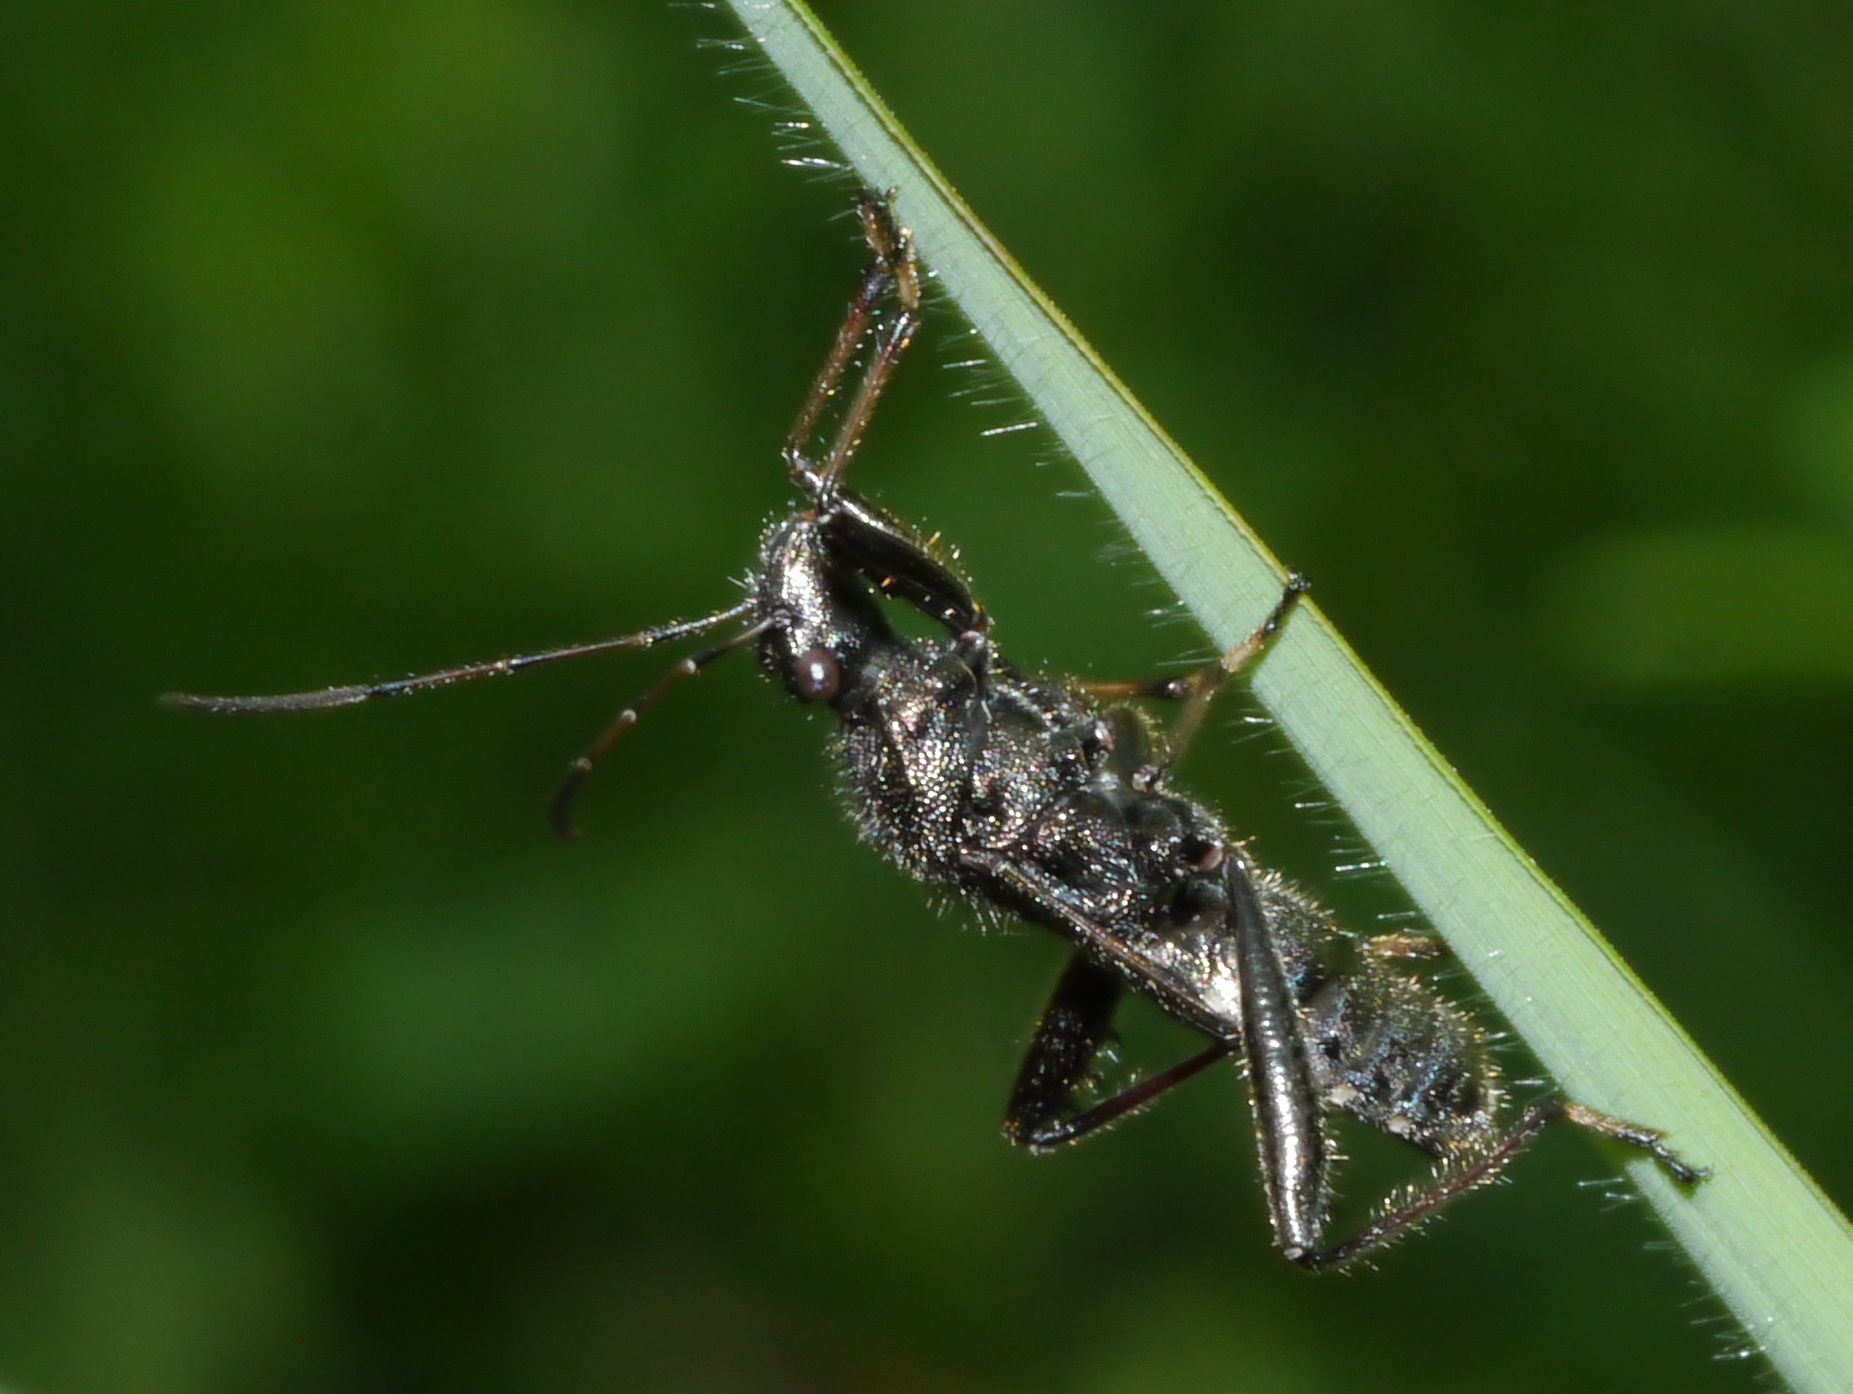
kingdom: Animalia
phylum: Arthropoda
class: Insecta
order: Hemiptera
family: Alydidae
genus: Alydus
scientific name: Alydus eurinus
